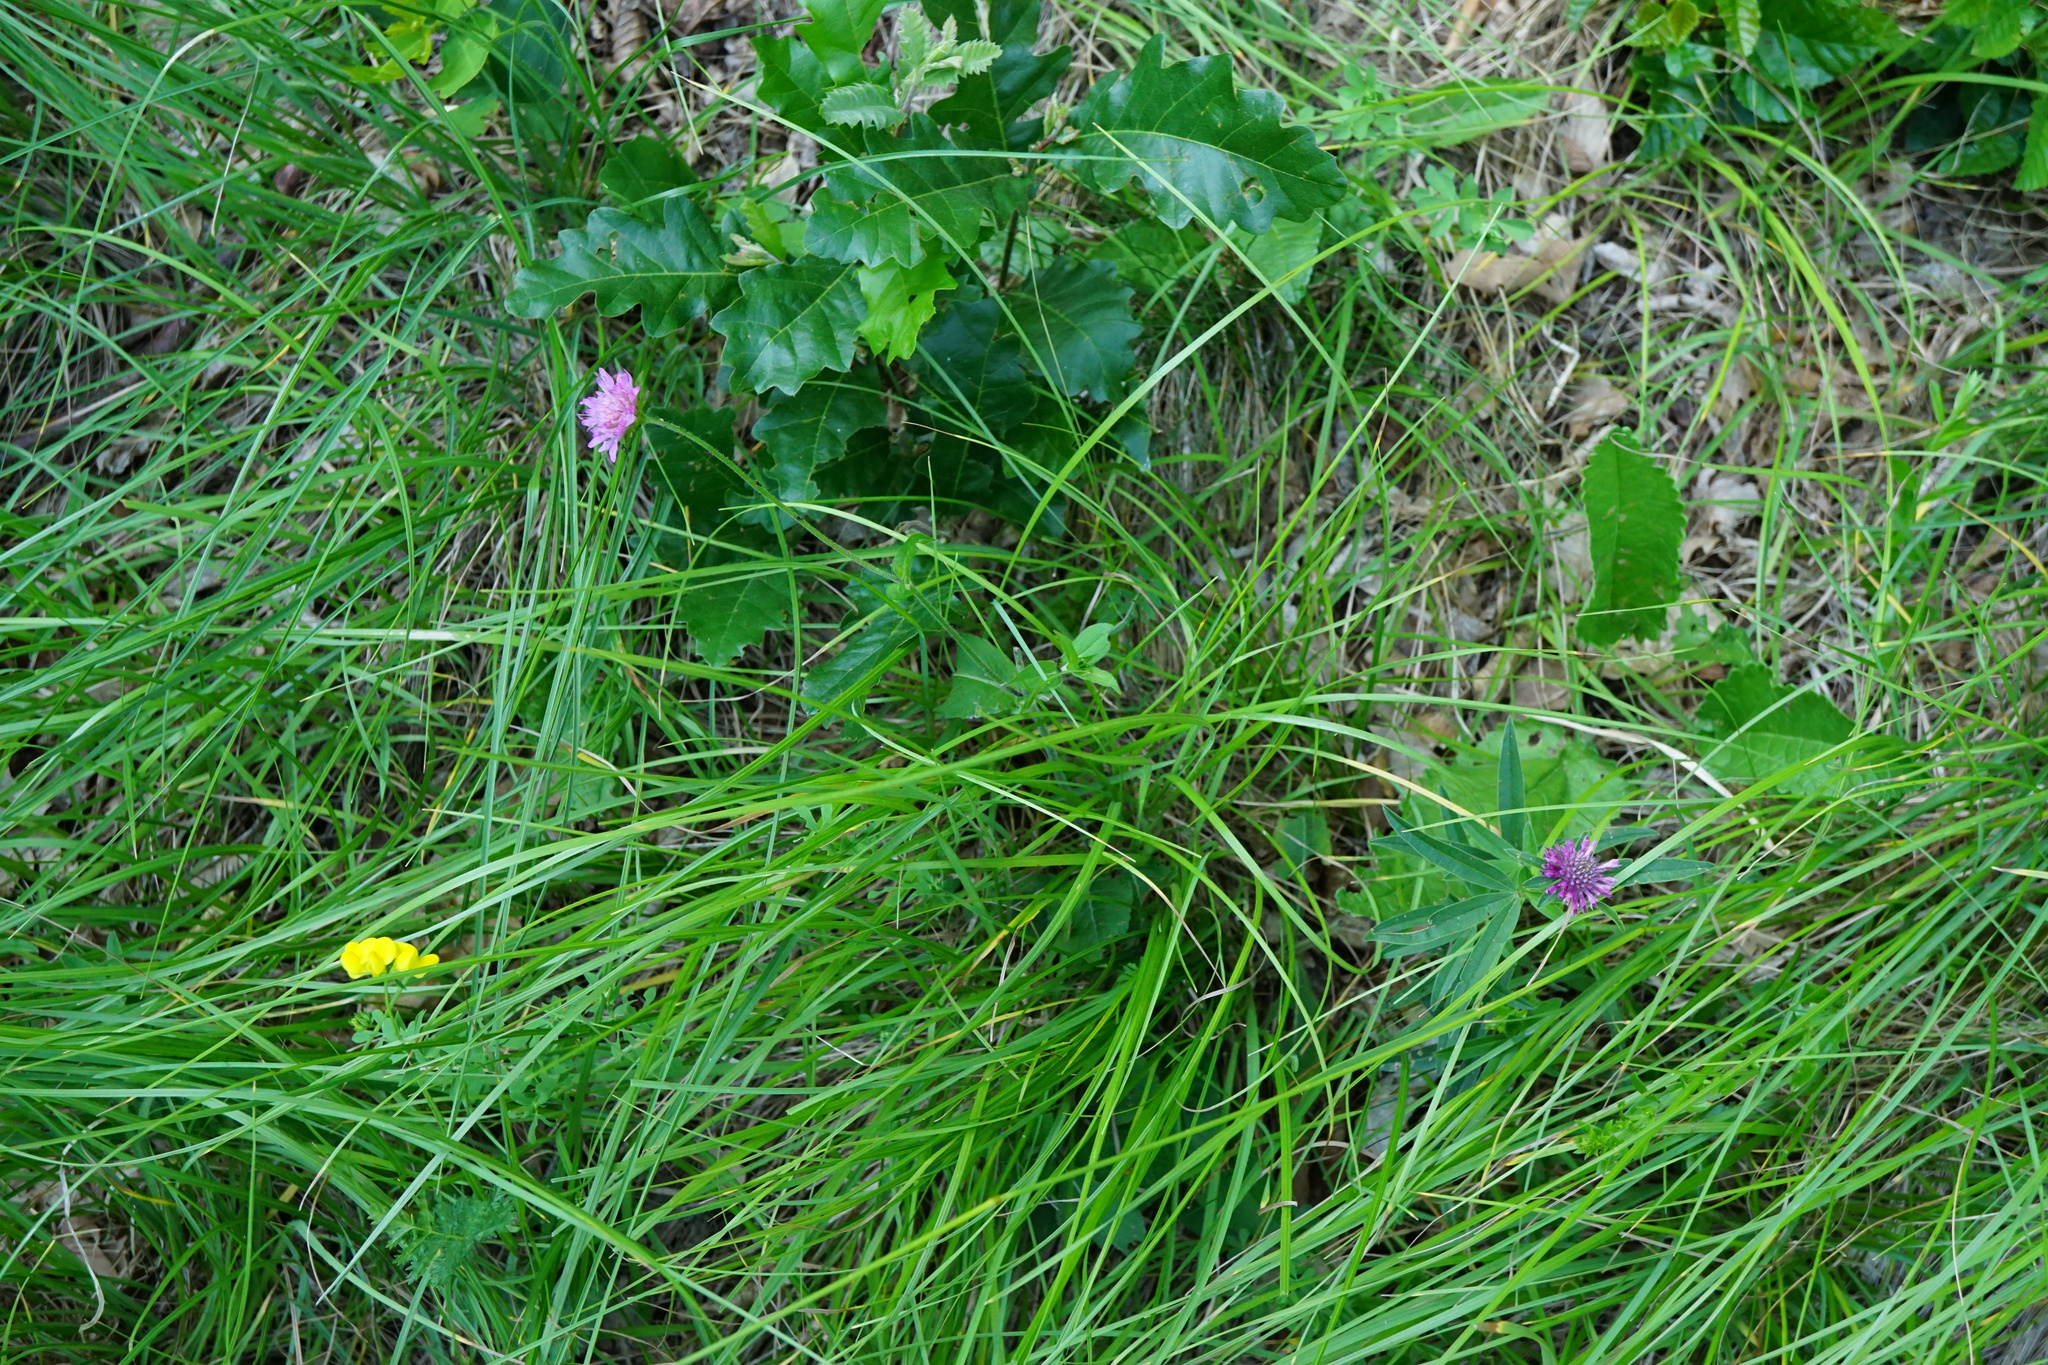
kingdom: Plantae
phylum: Tracheophyta
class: Magnoliopsida
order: Dipsacales
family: Caprifoliaceae
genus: Knautia
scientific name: Knautia drymeia
